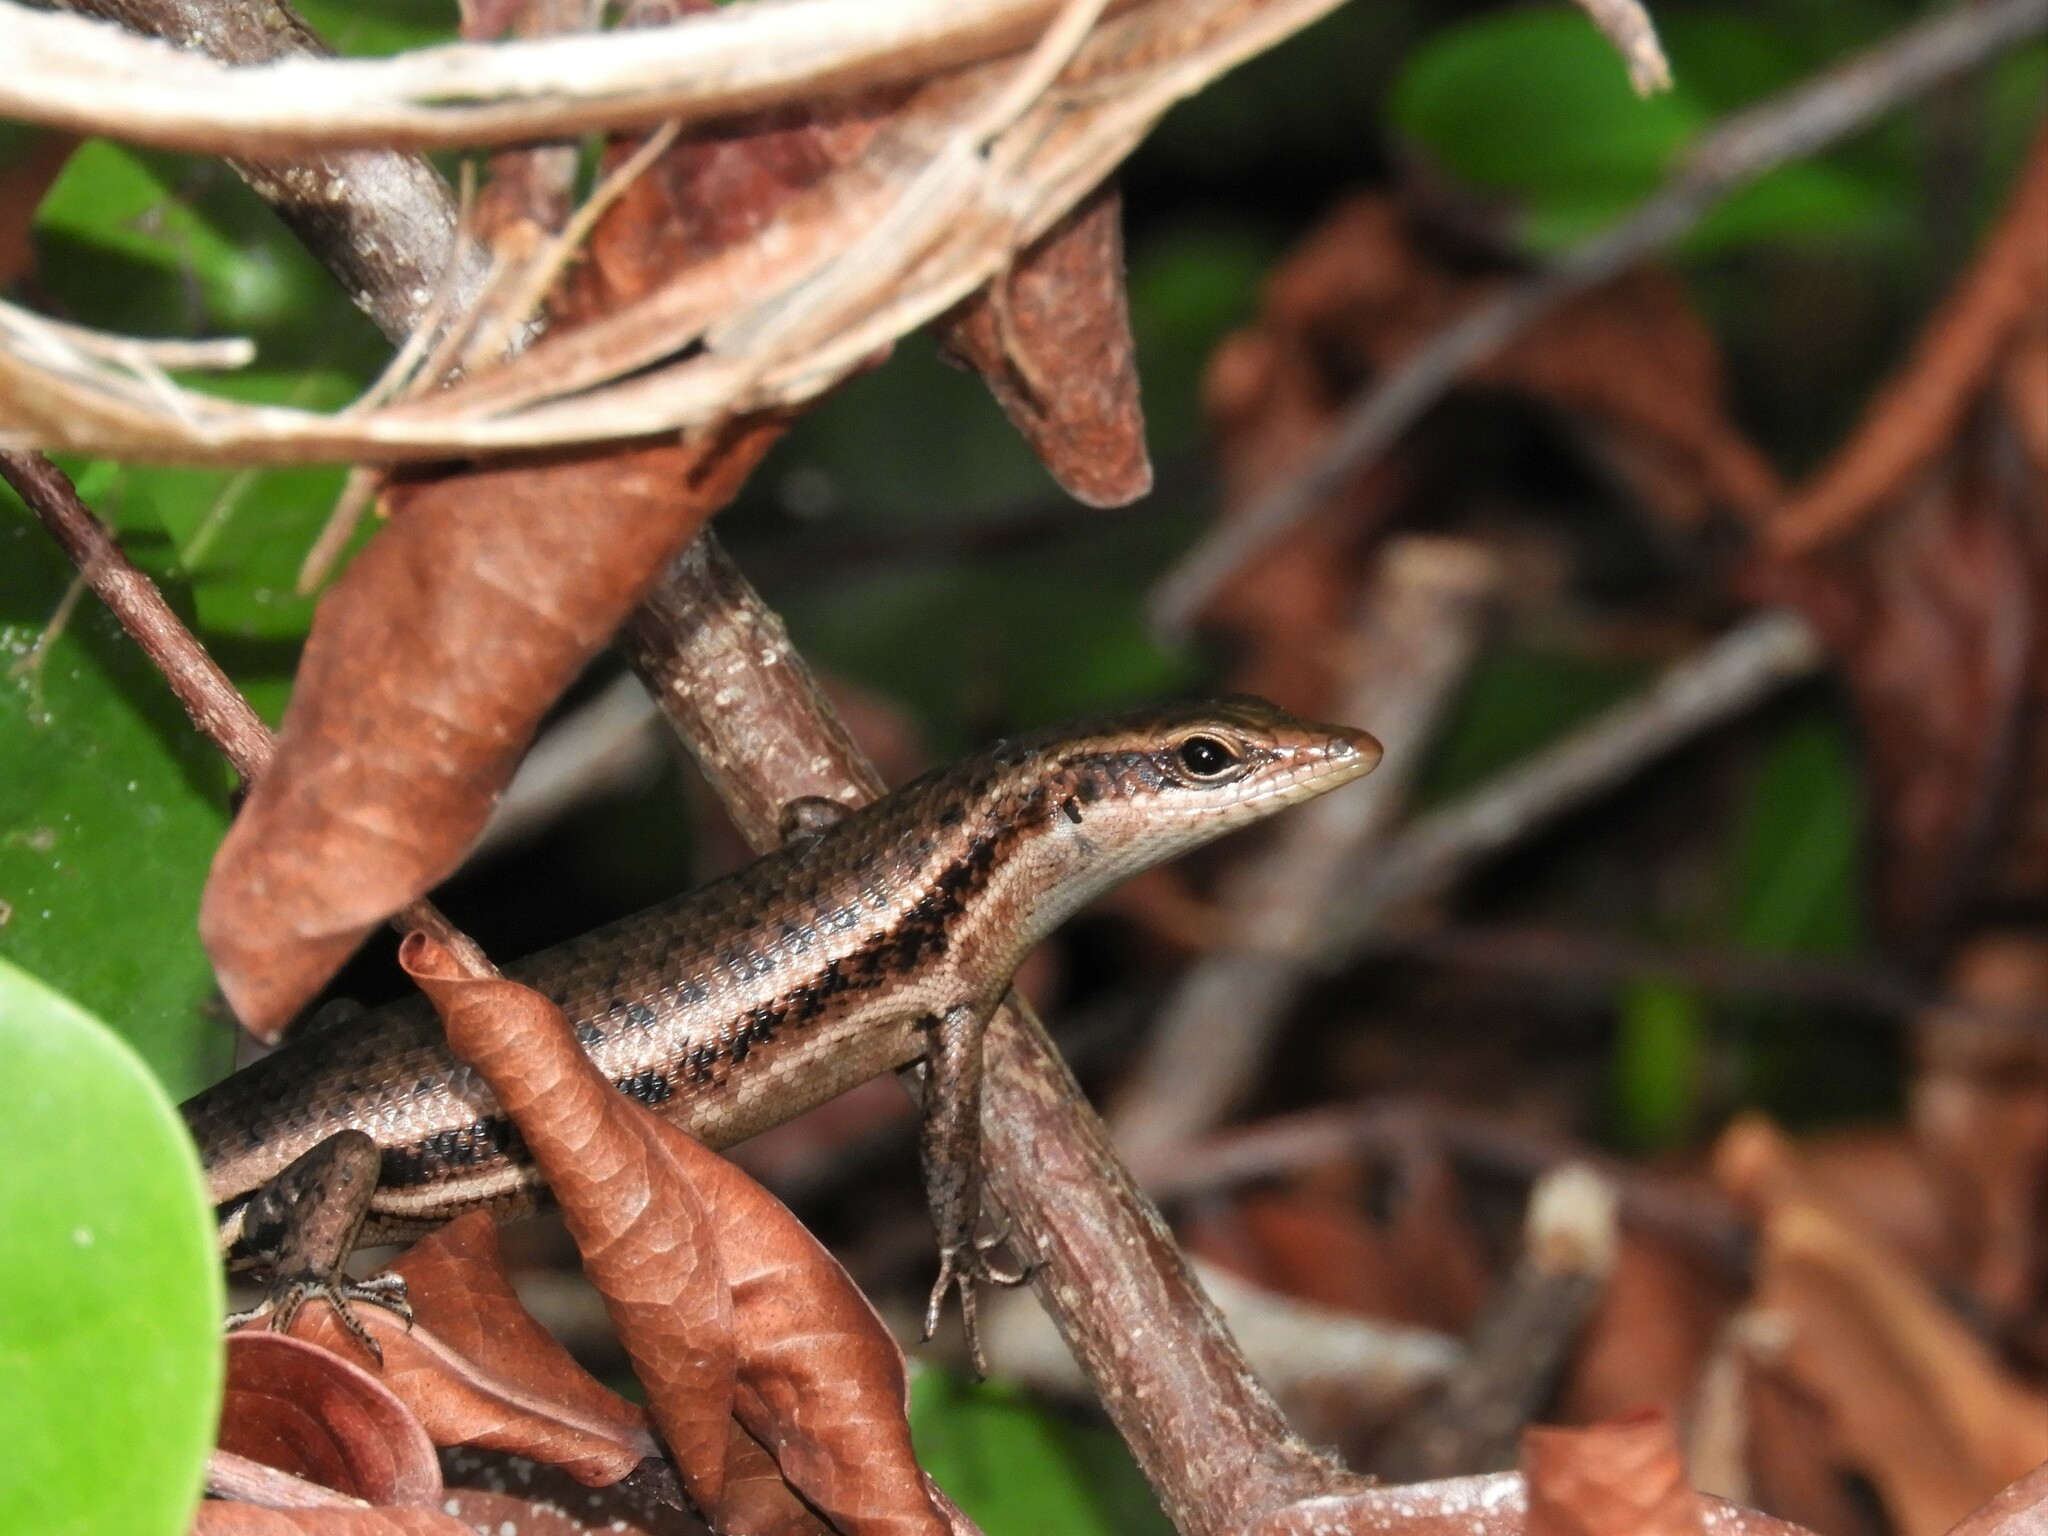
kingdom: Animalia
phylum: Chordata
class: Squamata
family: Scincidae
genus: Trachylepis
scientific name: Trachylepis sechellensis
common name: Seychelles skink
